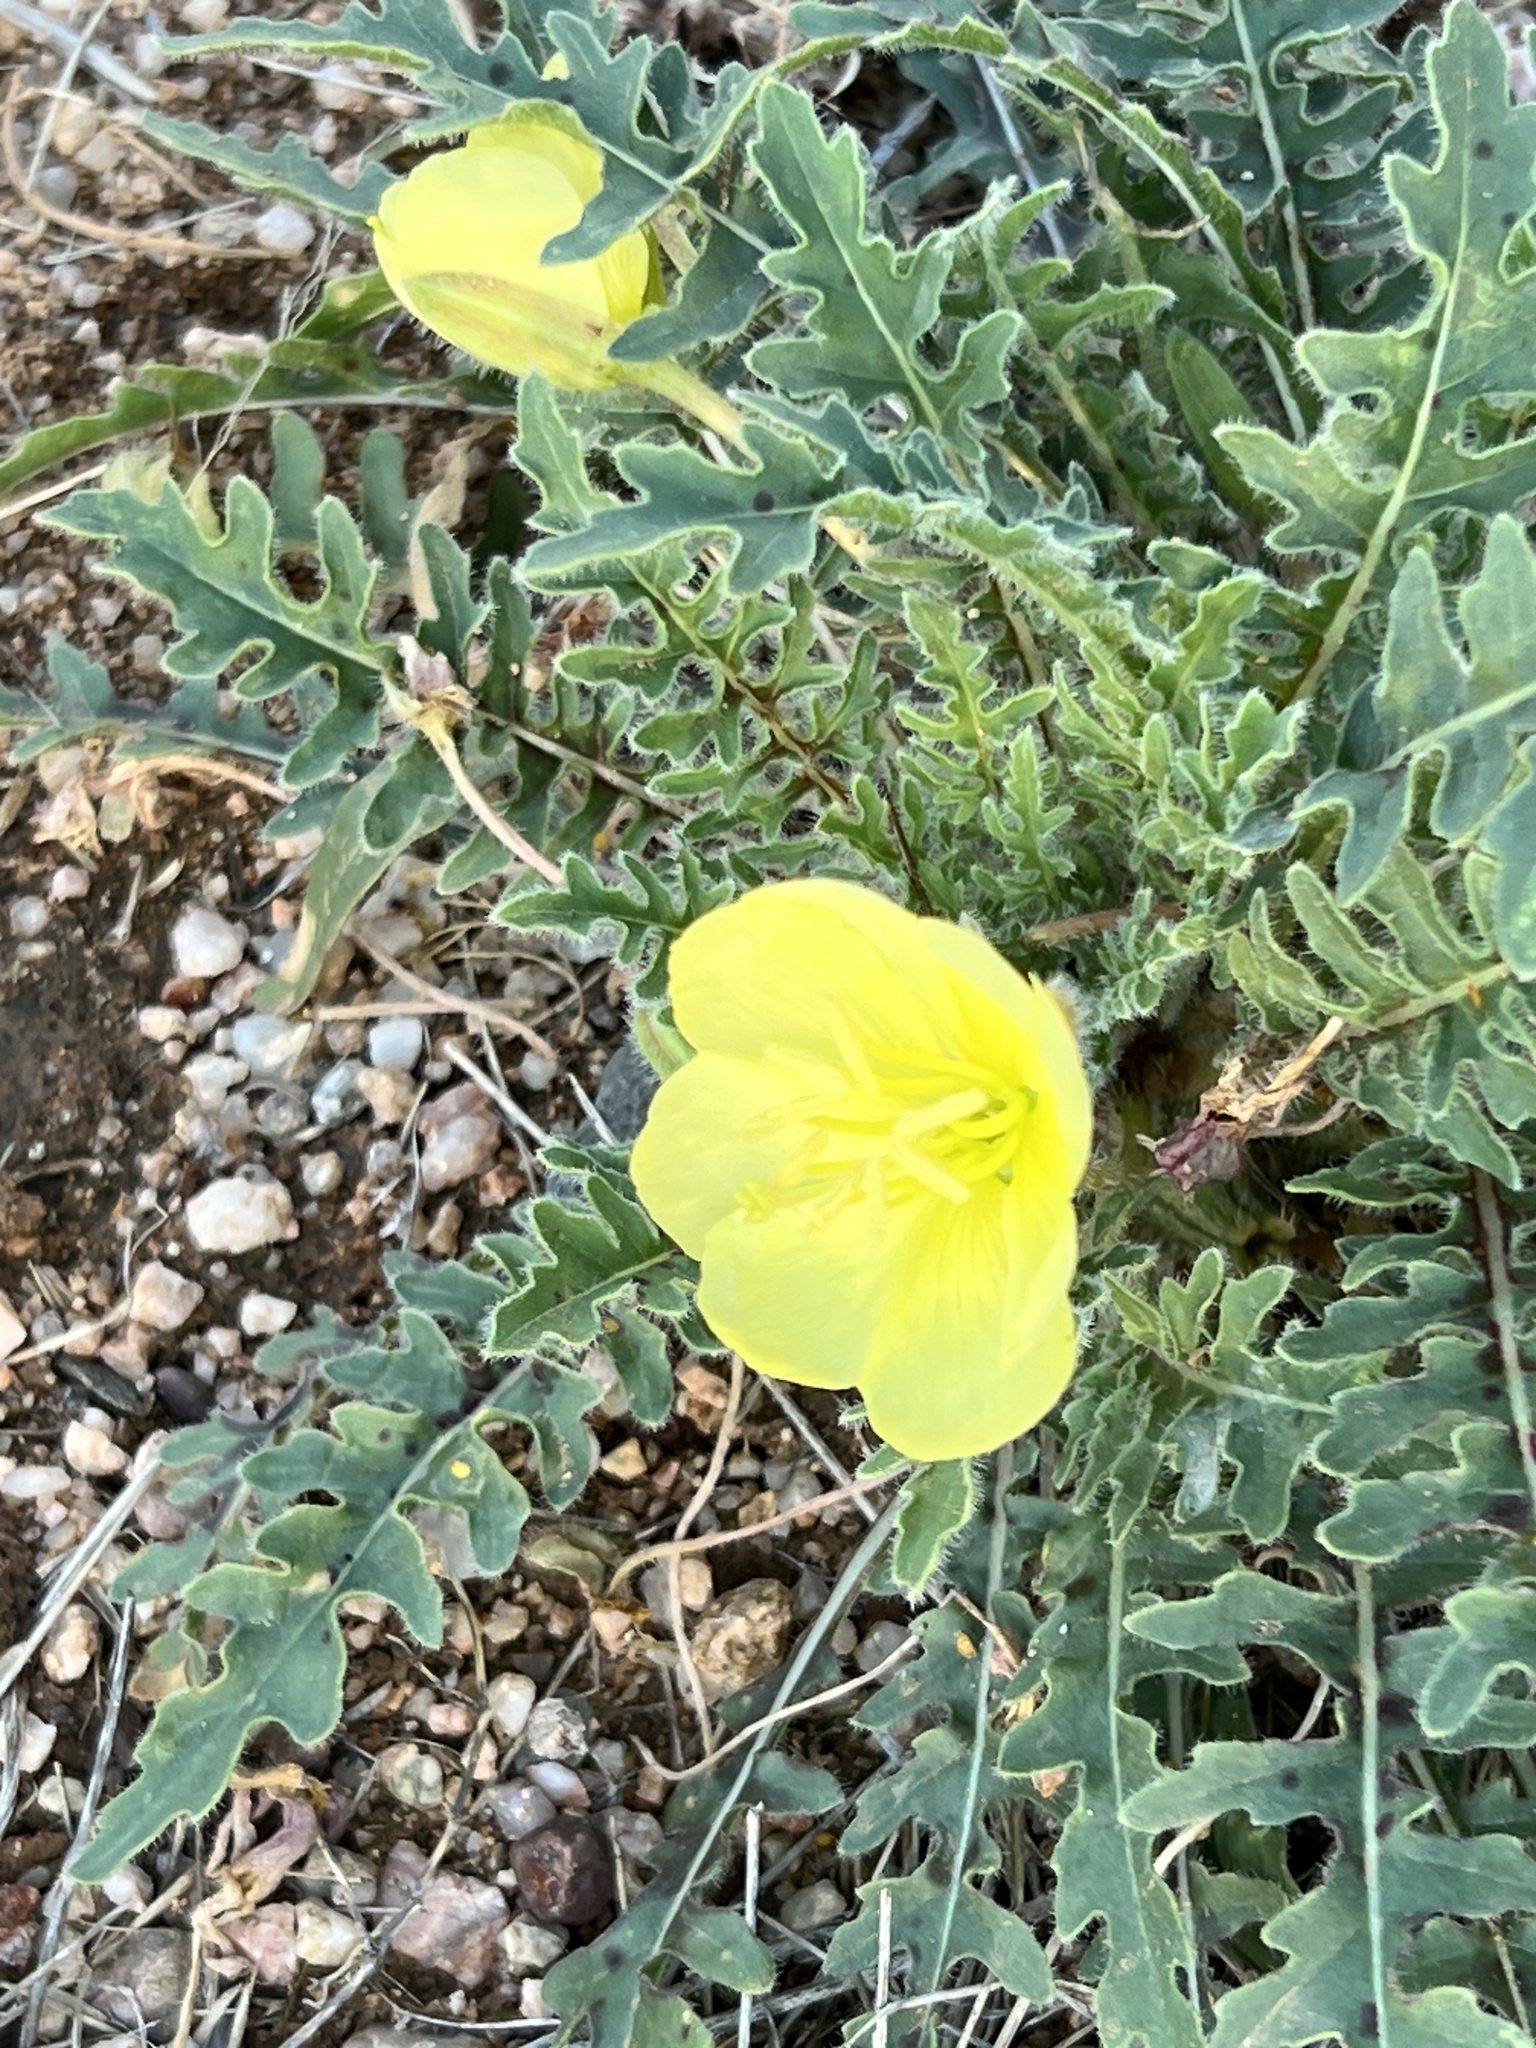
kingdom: Plantae
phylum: Tracheophyta
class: Magnoliopsida
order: Myrtales
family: Onagraceae
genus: Oenothera
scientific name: Oenothera primiveris
